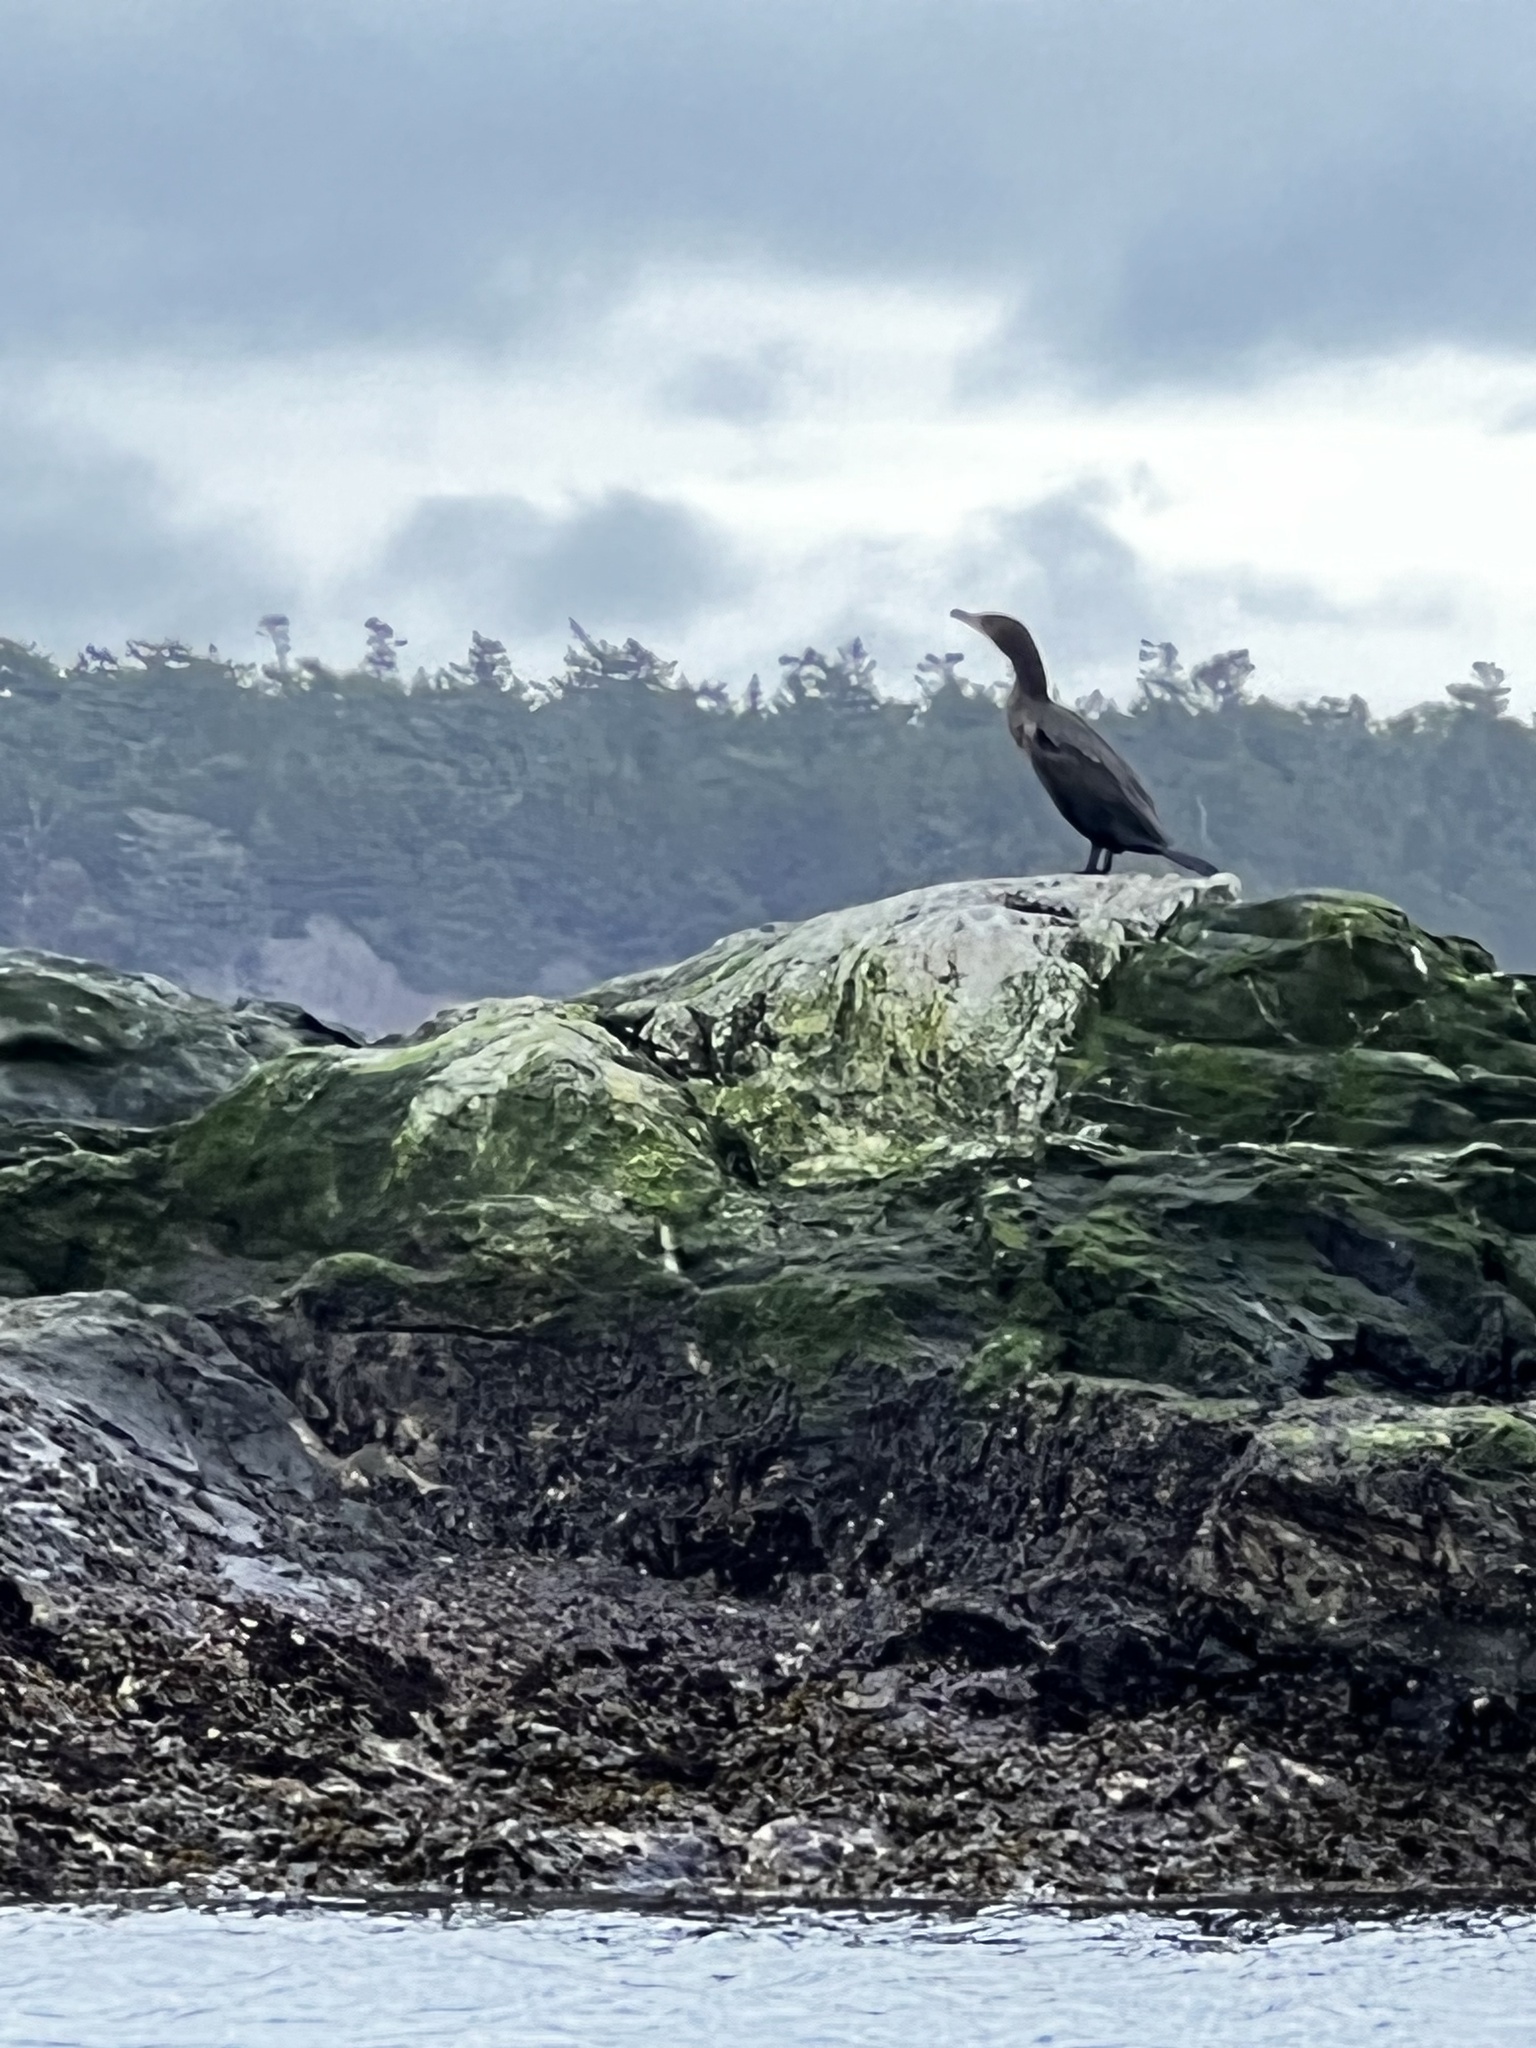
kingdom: Animalia
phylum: Chordata
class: Aves
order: Suliformes
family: Phalacrocoracidae
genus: Phalacrocorax
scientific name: Phalacrocorax auritus
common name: Double-crested cormorant
